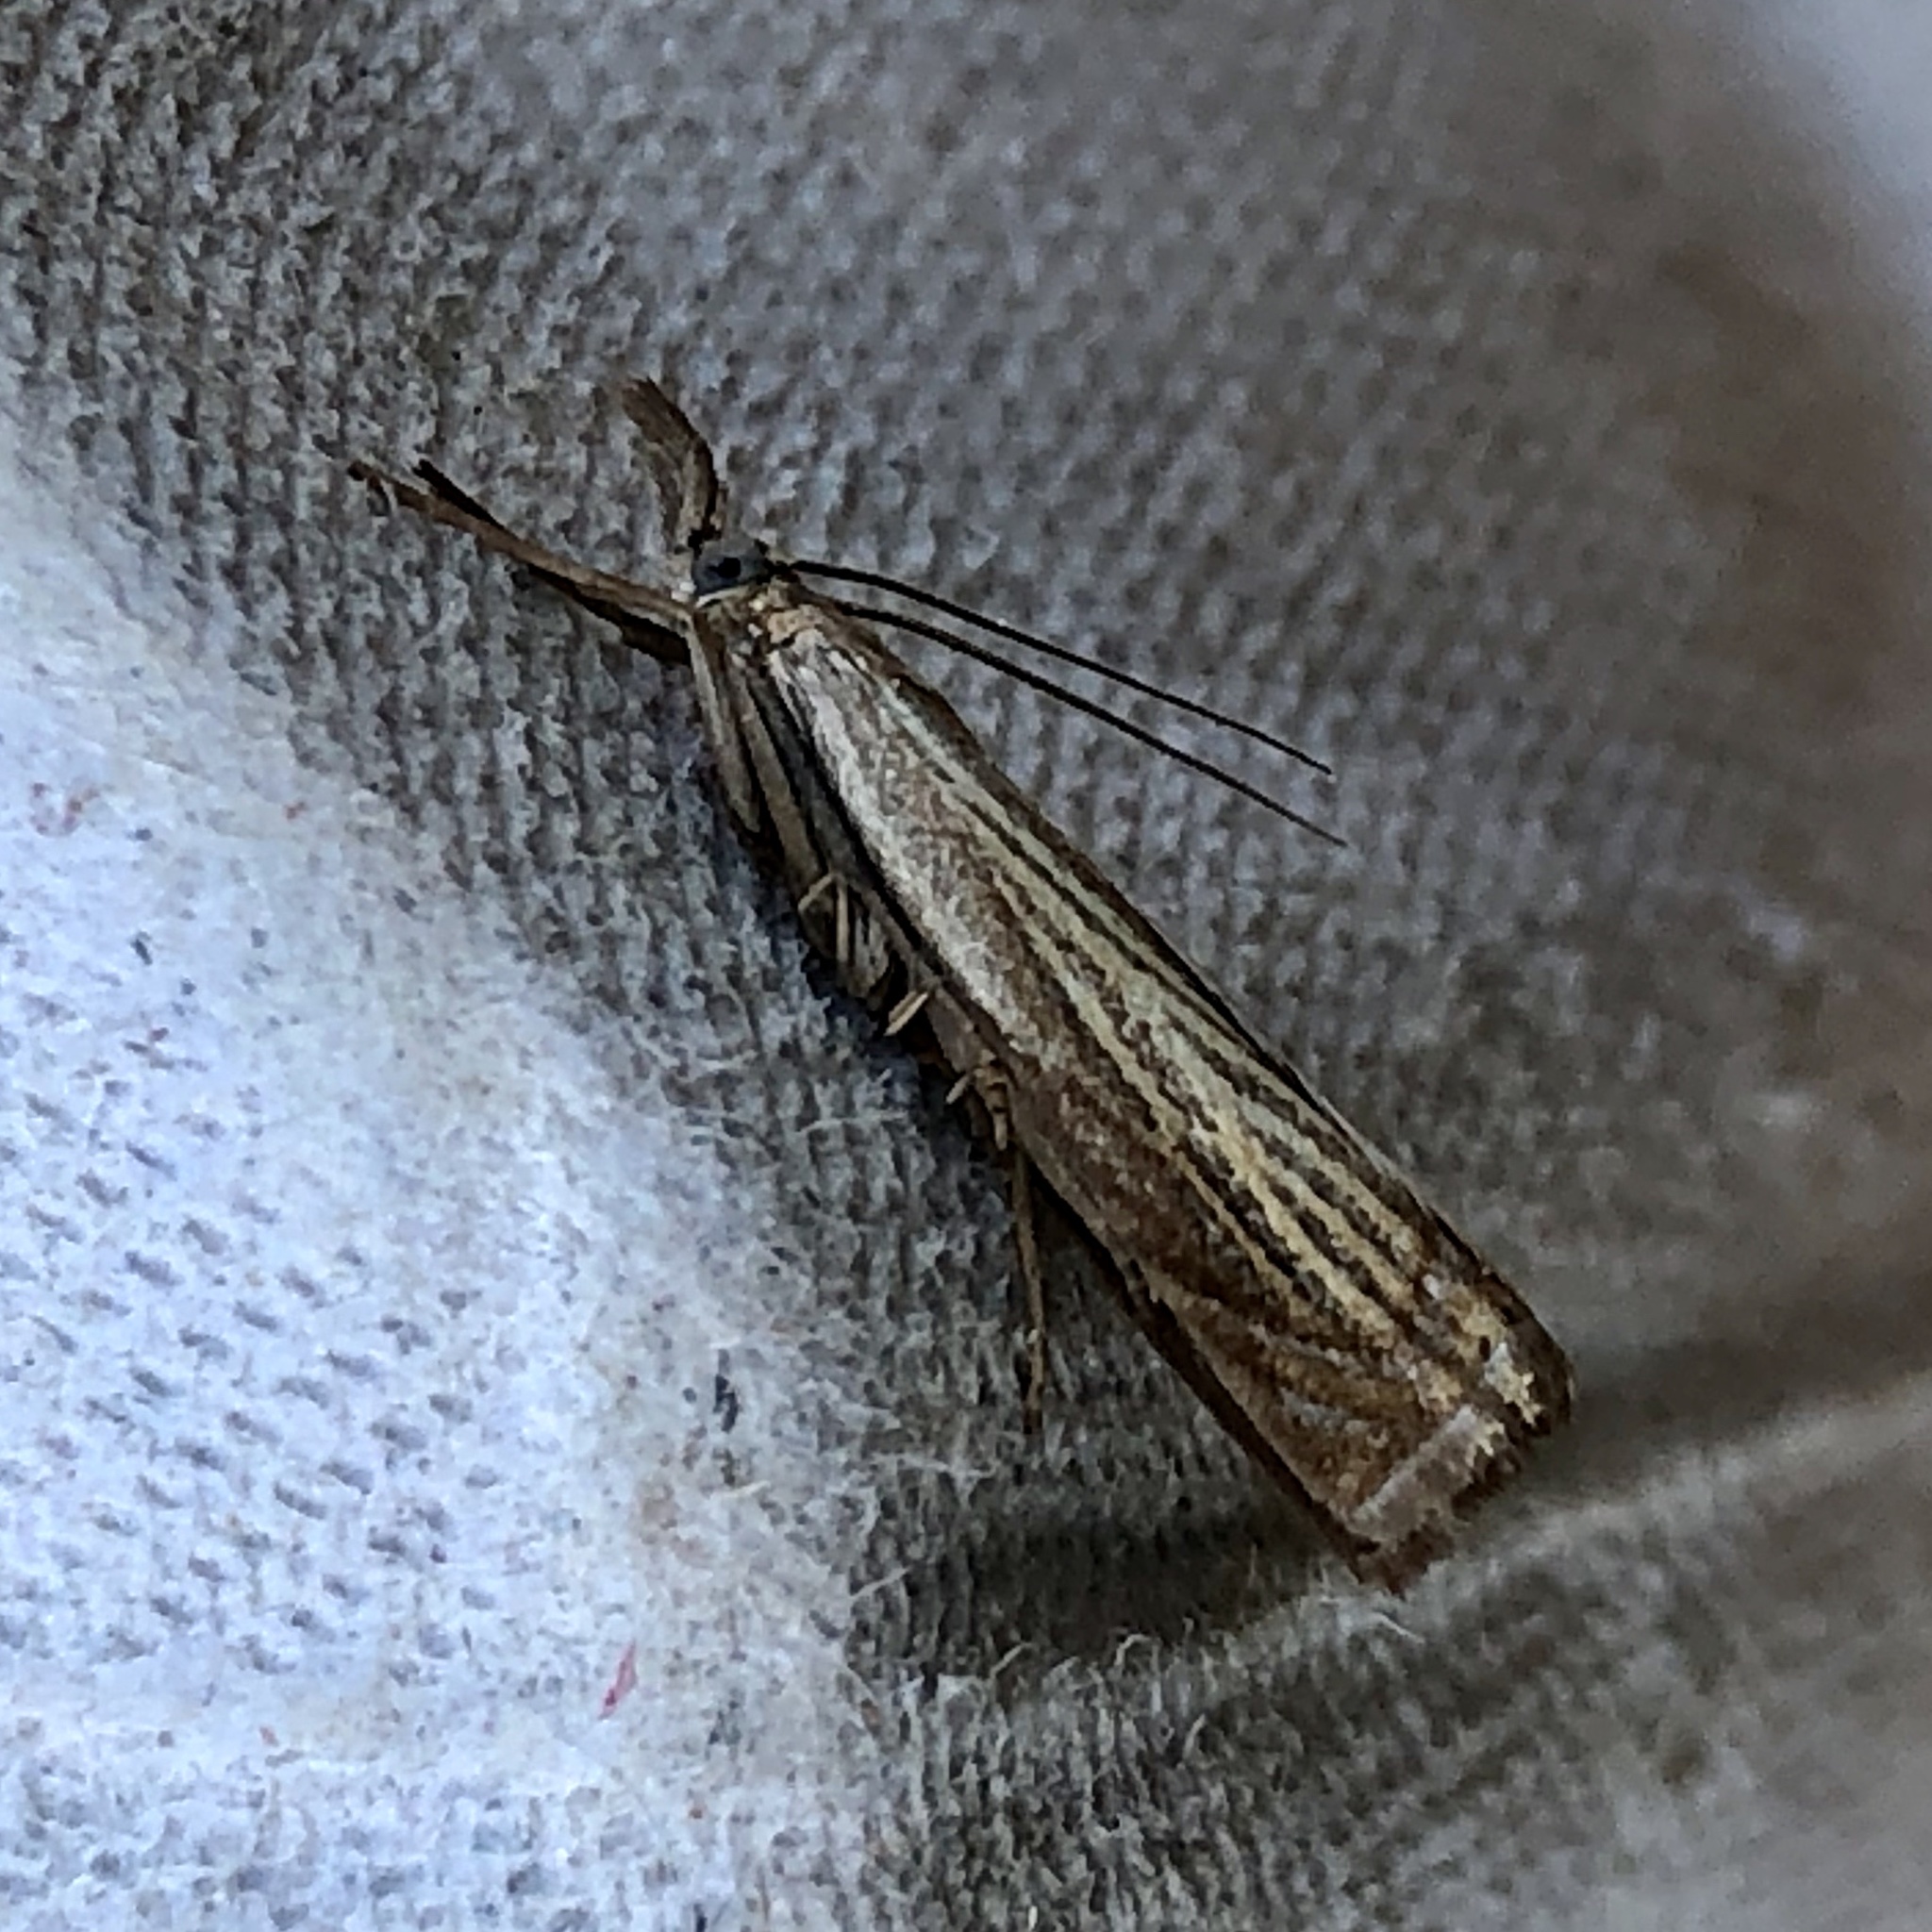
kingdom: Animalia
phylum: Arthropoda
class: Insecta
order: Lepidoptera
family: Crambidae
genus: Chrysoteuchia
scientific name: Chrysoteuchia culmella
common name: Garden grass-veneer
